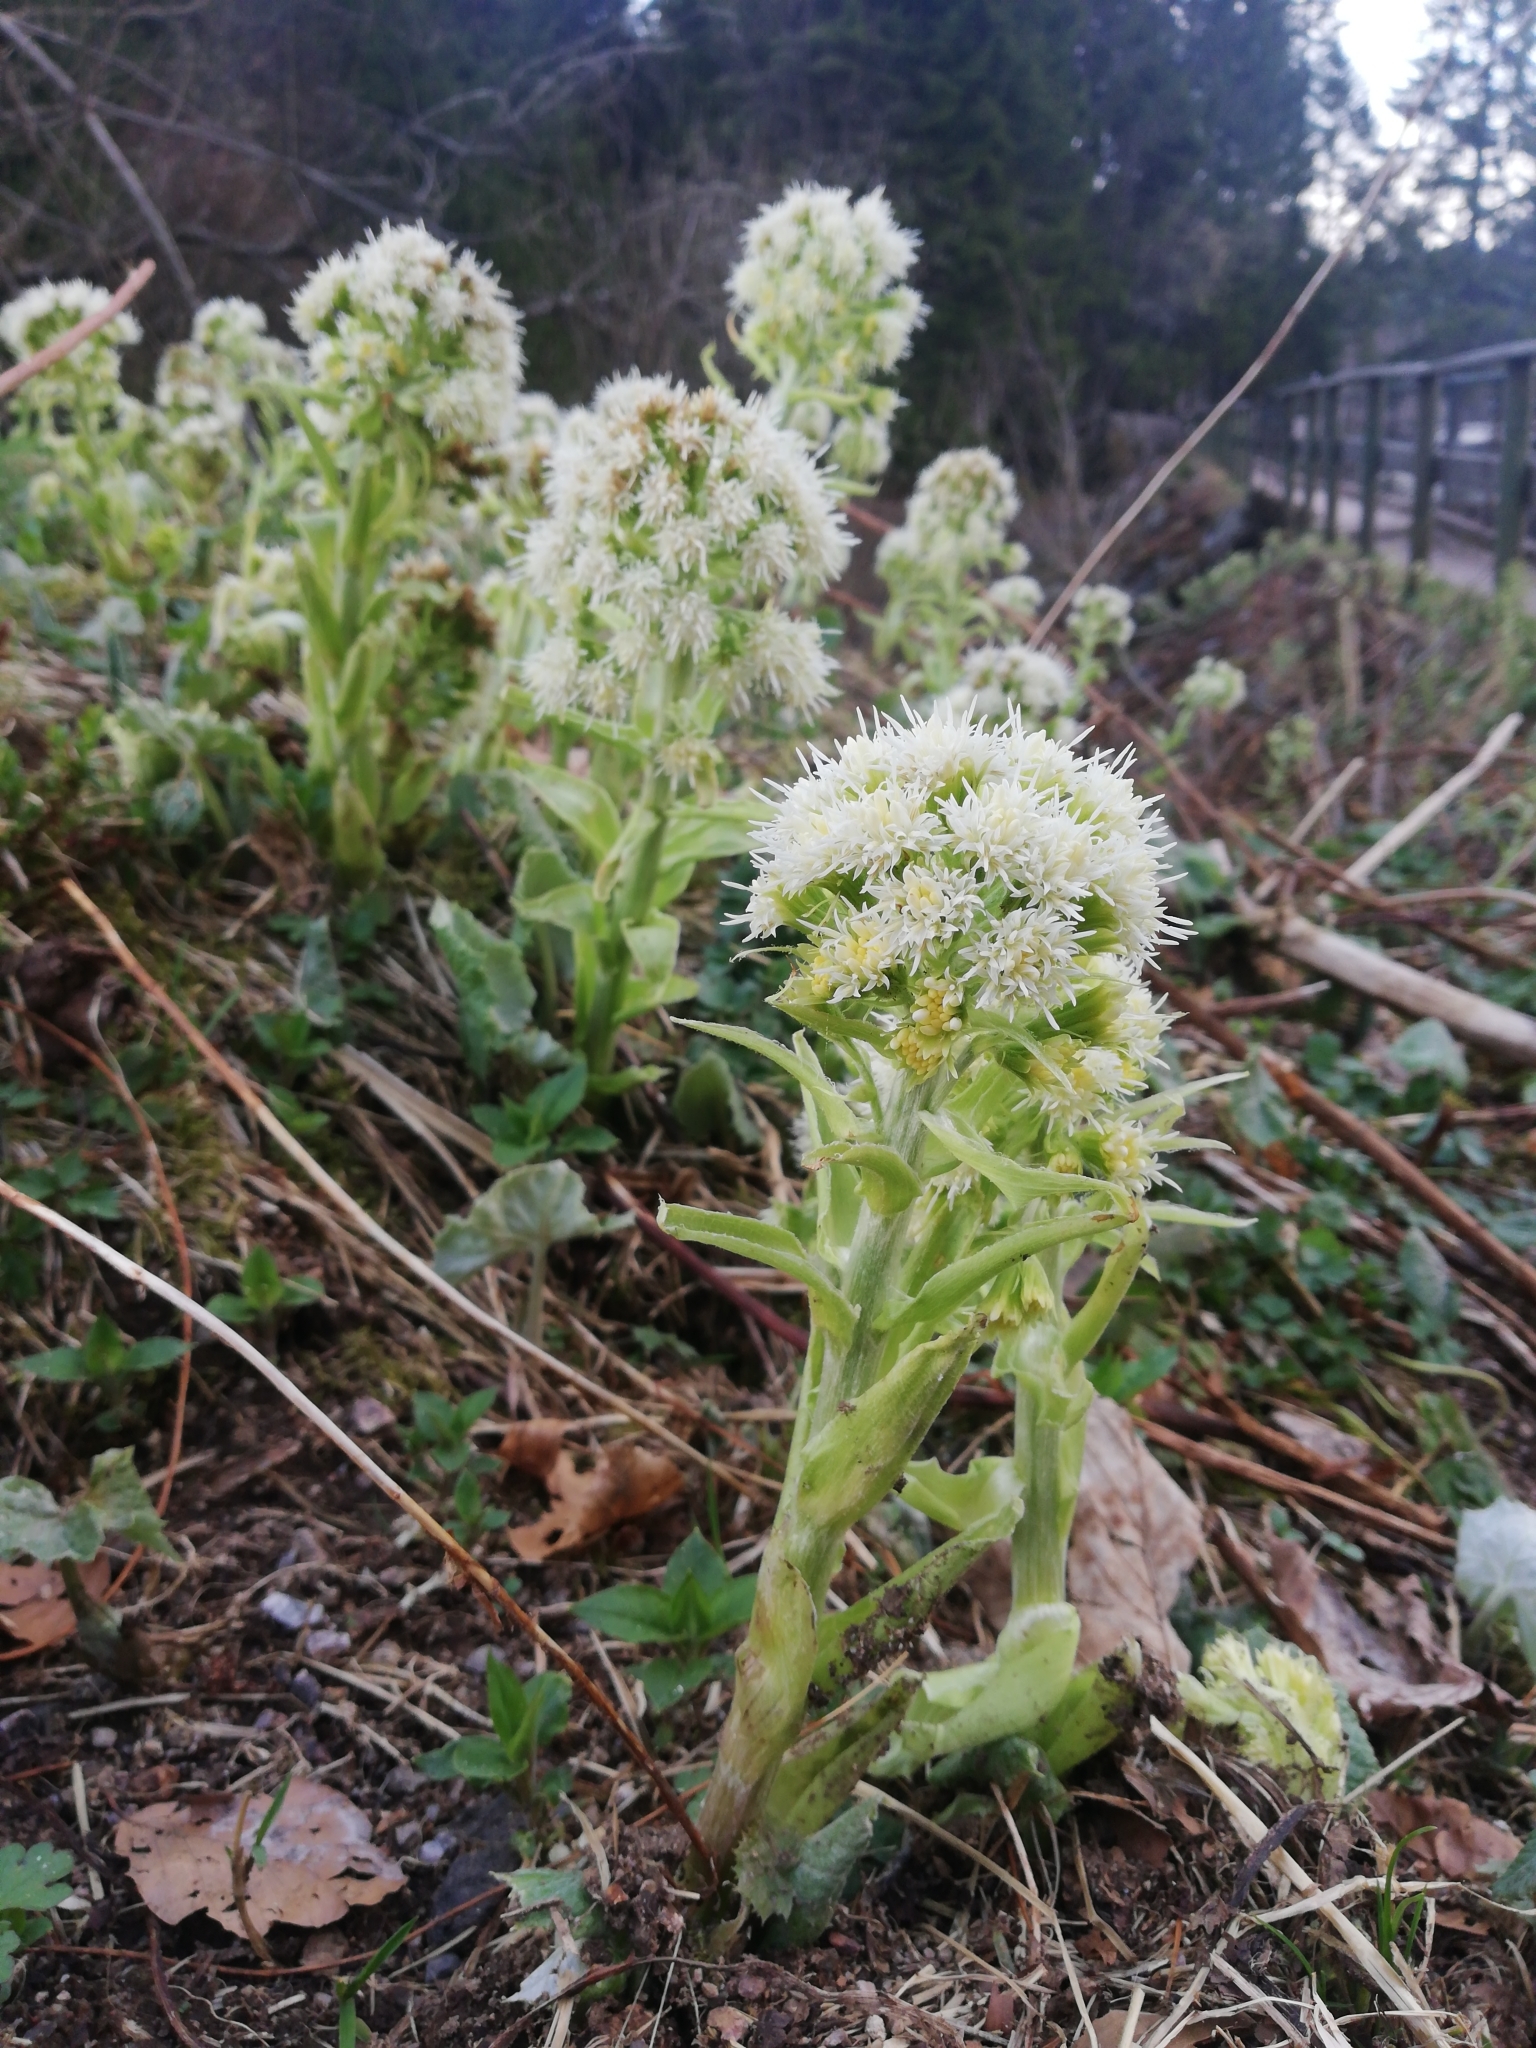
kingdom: Plantae
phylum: Tracheophyta
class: Magnoliopsida
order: Asterales
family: Asteraceae
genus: Petasites
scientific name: Petasites albus
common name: White butterbur
